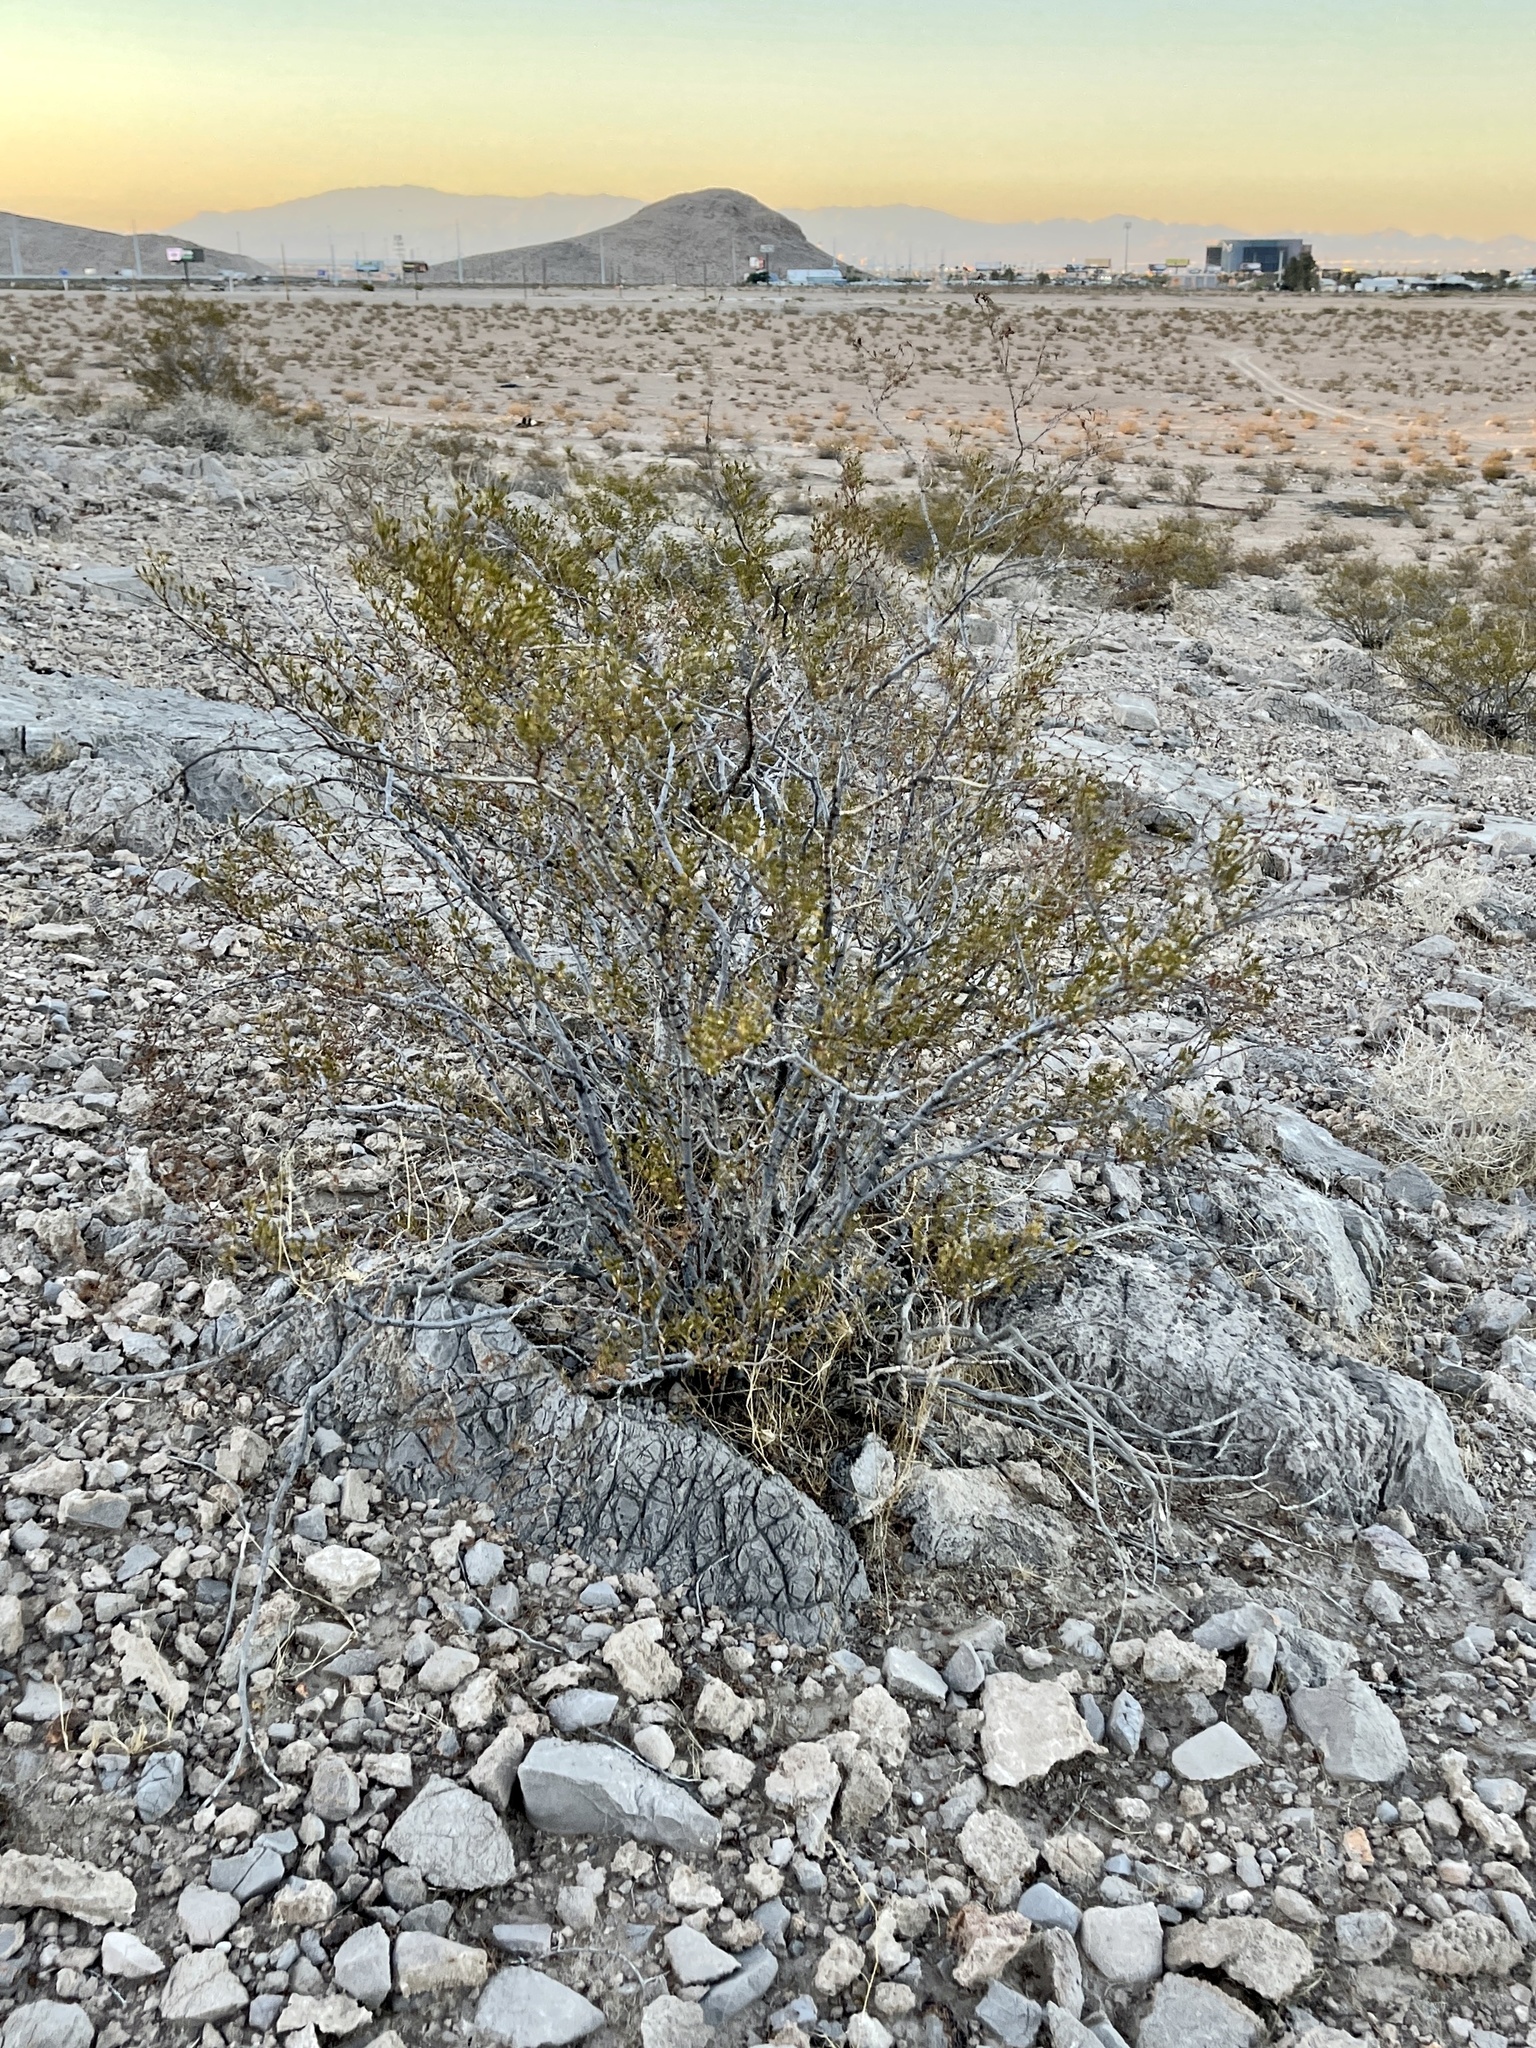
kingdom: Plantae
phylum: Tracheophyta
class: Magnoliopsida
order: Zygophyllales
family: Zygophyllaceae
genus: Larrea
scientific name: Larrea tridentata
